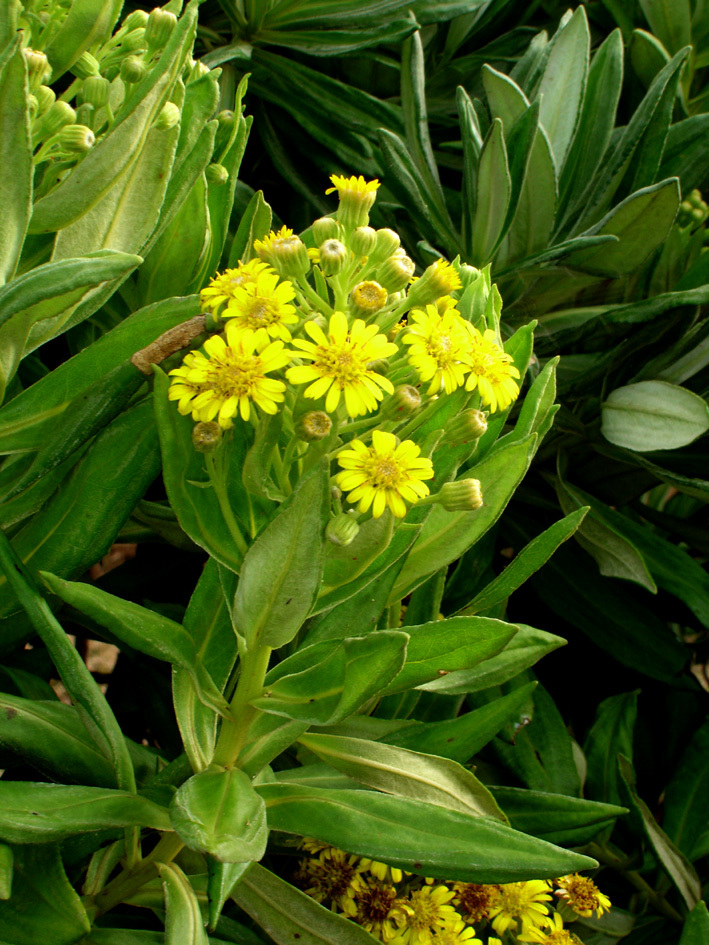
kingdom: Plantae
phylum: Tracheophyta
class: Magnoliopsida
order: Asterales
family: Asteraceae
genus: Brachyglottis
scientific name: Brachyglottis huntii
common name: Chatham island christmas tree
